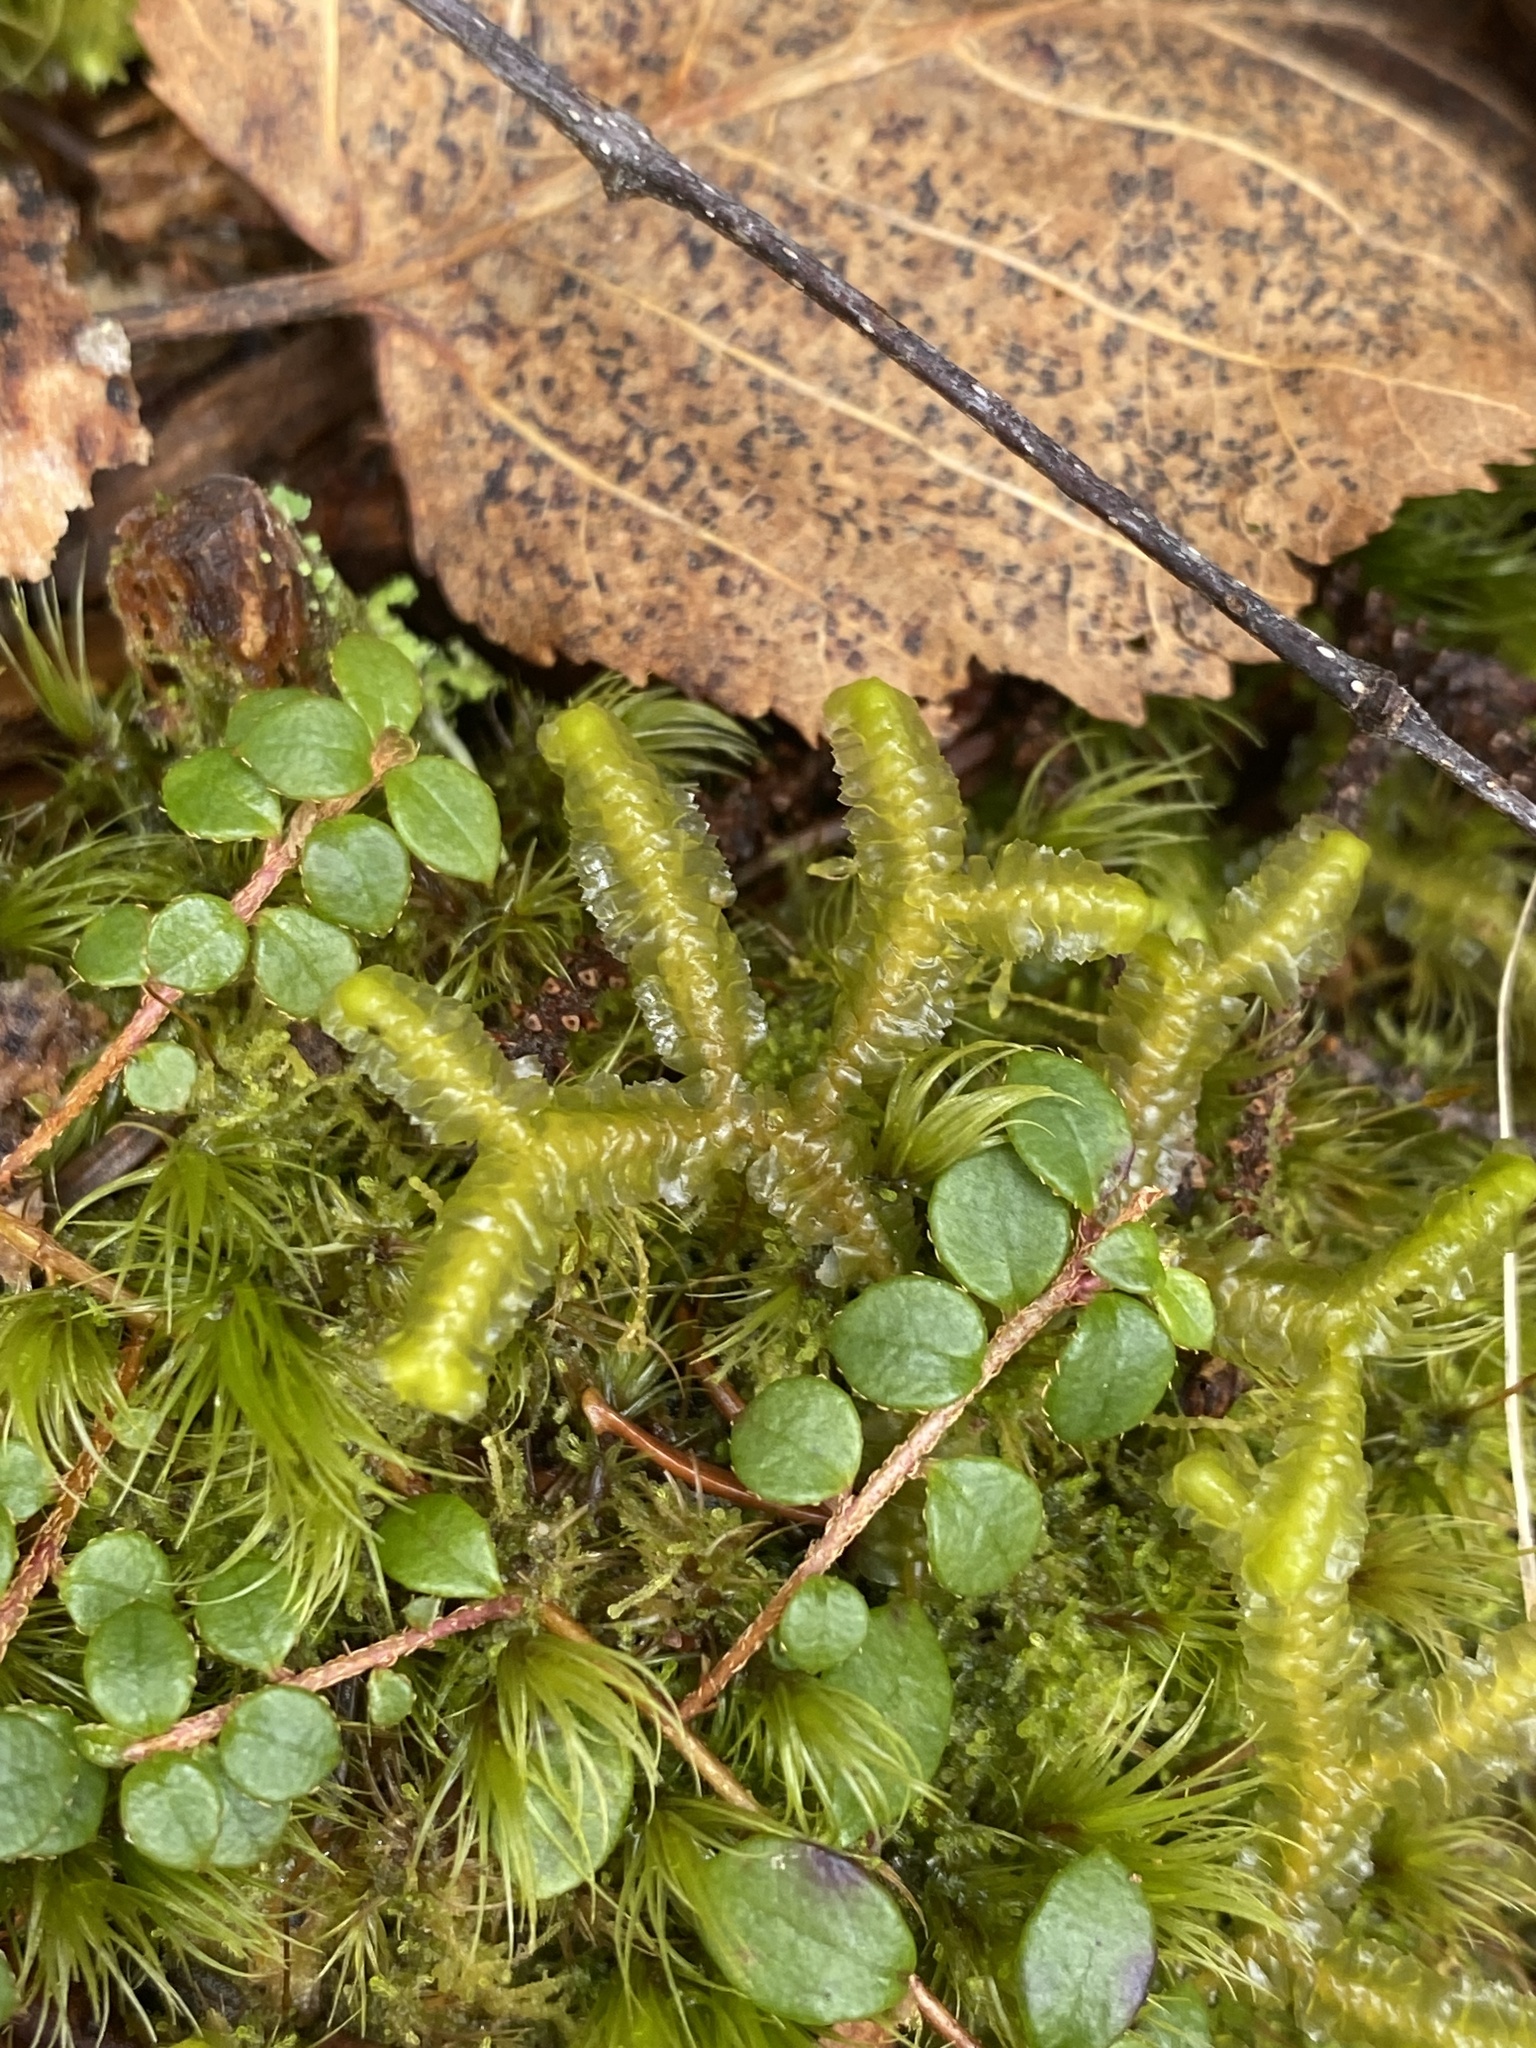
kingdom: Plantae
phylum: Marchantiophyta
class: Jungermanniopsida
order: Jungermanniales
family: Lepidoziaceae
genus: Bazzania
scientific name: Bazzania trilobata
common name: Three-lobed whipwort
